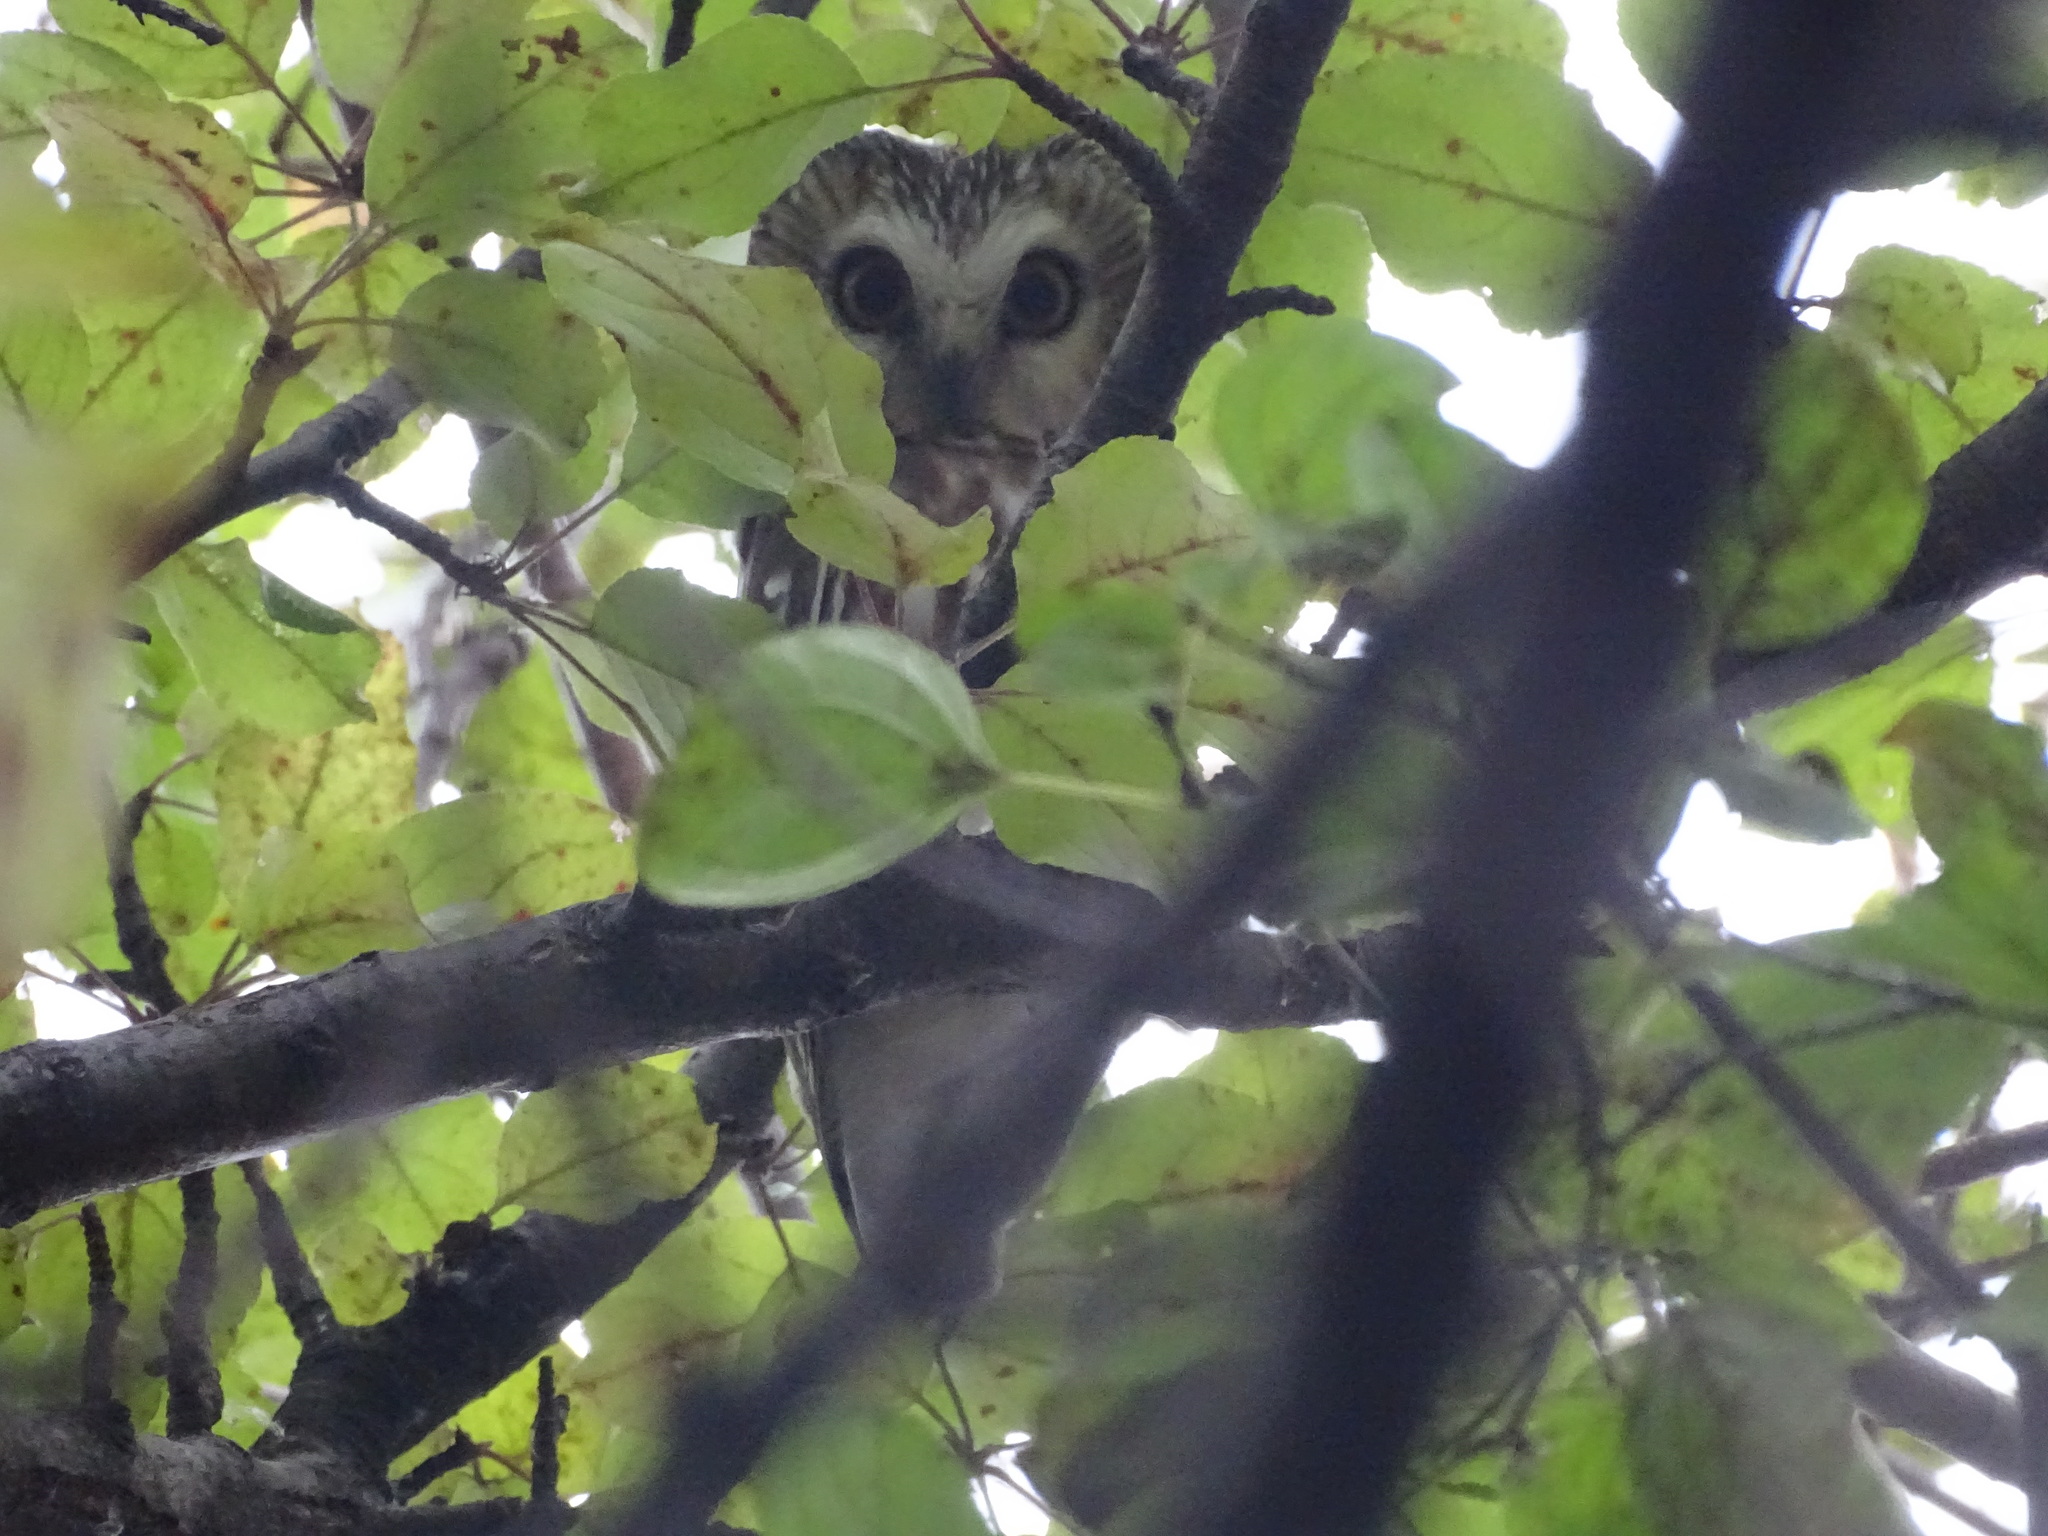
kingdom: Animalia
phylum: Chordata
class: Aves
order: Strigiformes
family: Strigidae
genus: Aegolius
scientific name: Aegolius acadicus
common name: Northern saw-whet owl
